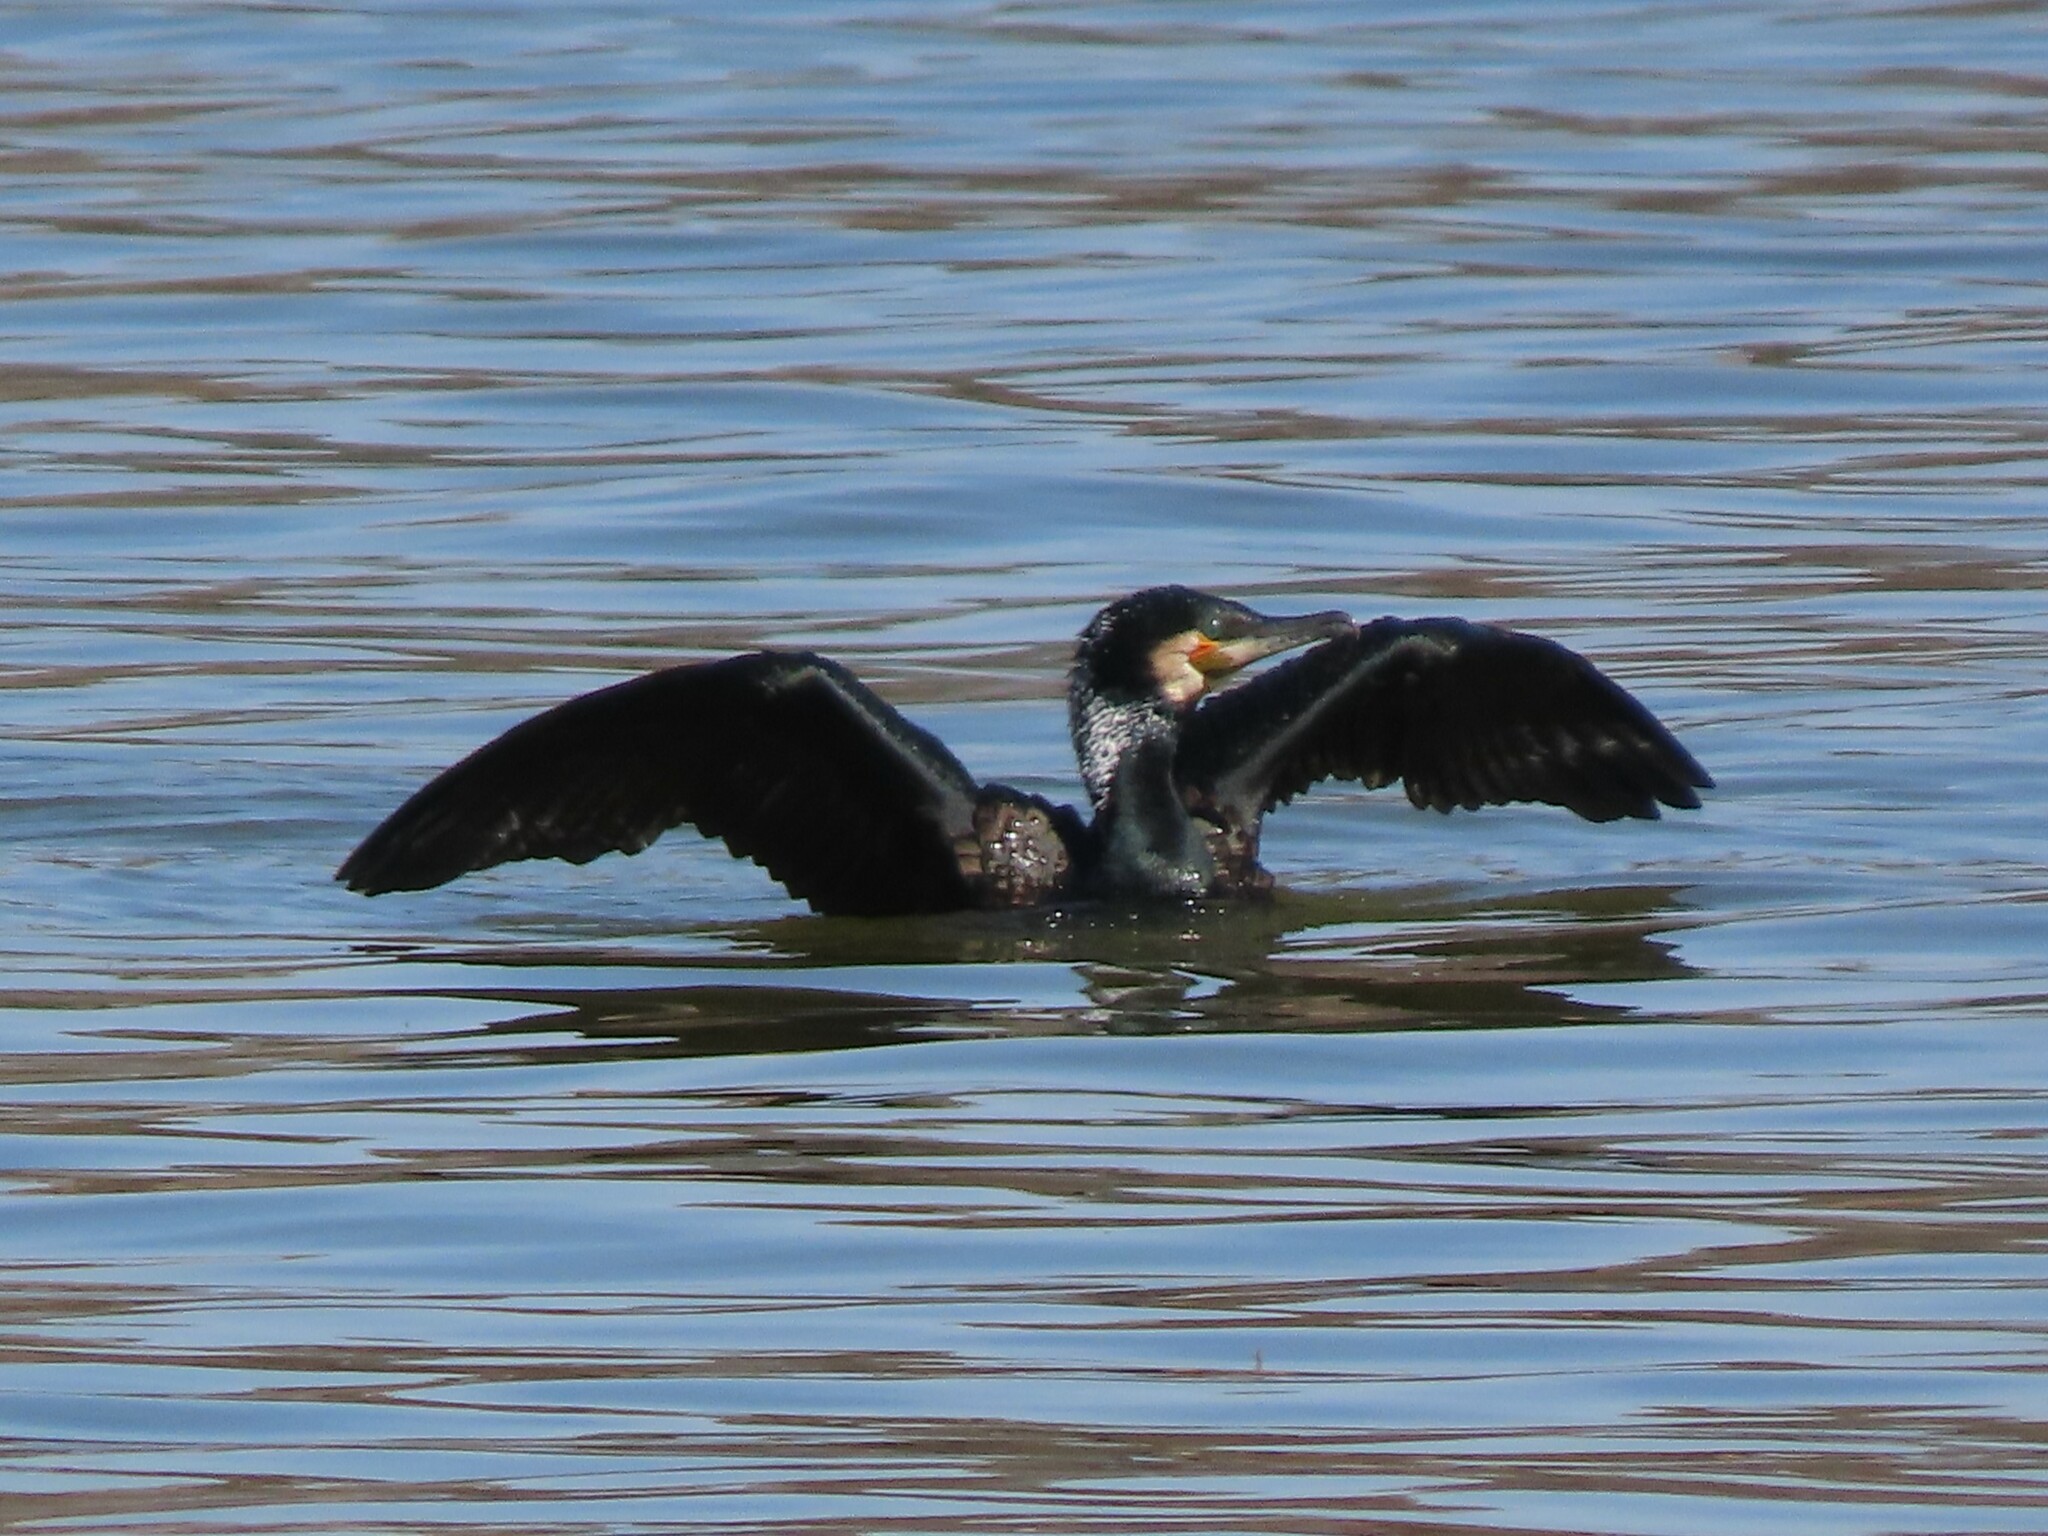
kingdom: Animalia
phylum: Chordata
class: Aves
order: Suliformes
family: Phalacrocoracidae
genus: Phalacrocorax
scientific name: Phalacrocorax carbo
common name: Great cormorant
